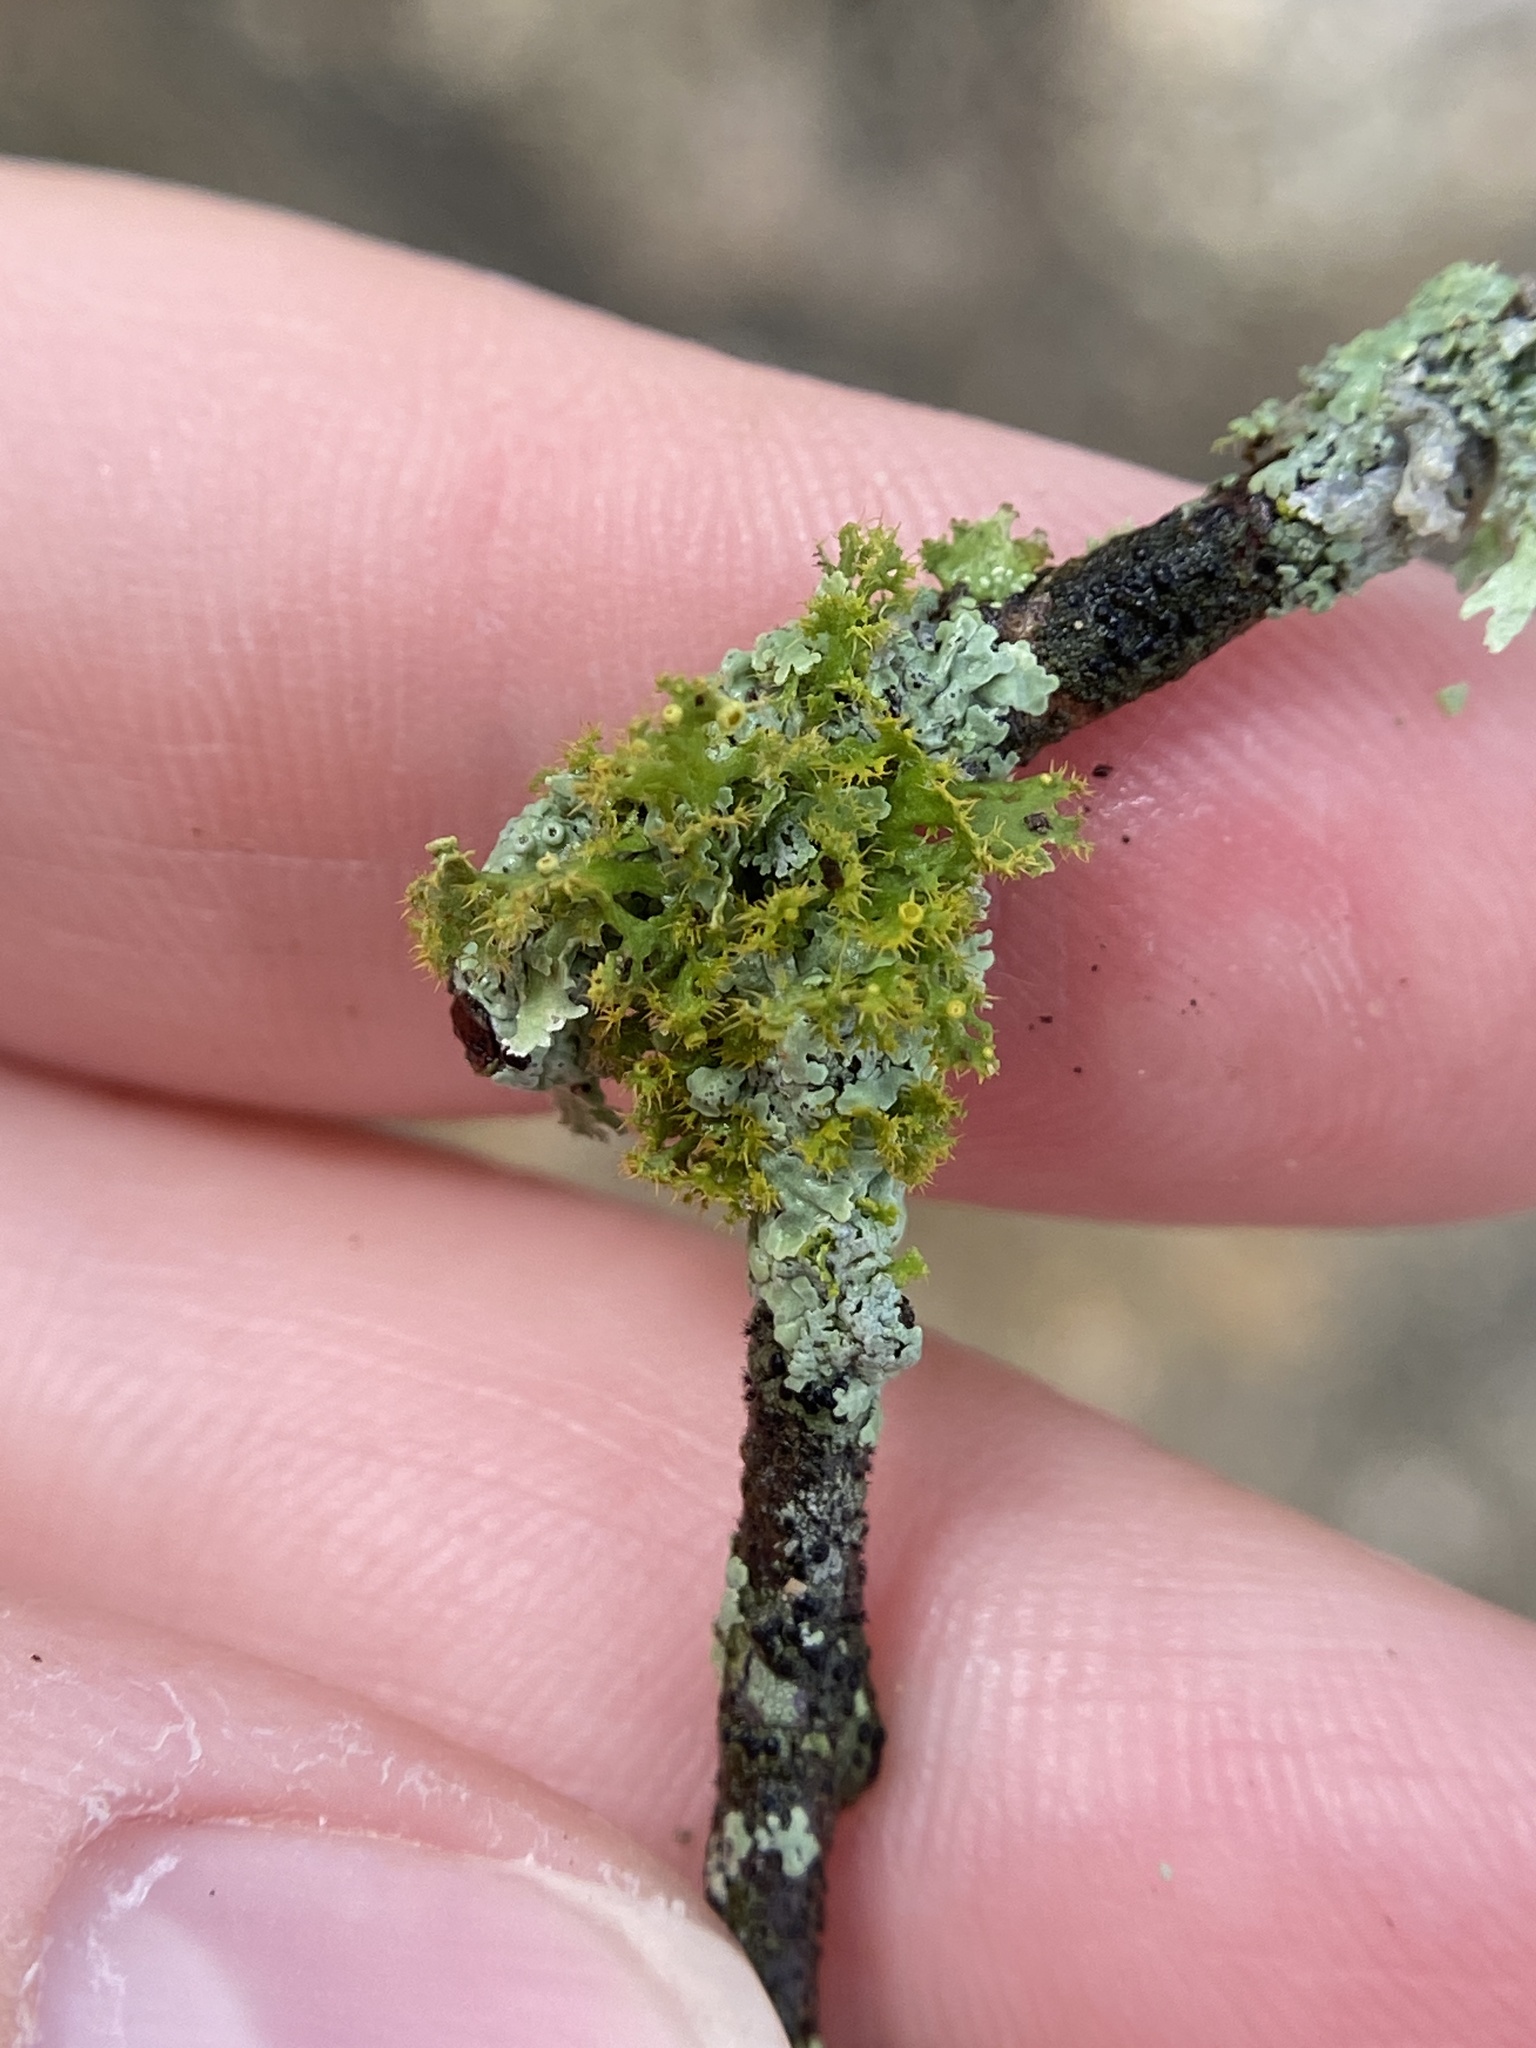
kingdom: Fungi
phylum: Ascomycota
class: Lecanoromycetes
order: Teloschistales
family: Teloschistaceae
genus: Niorma
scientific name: Niorma chrysophthalma
